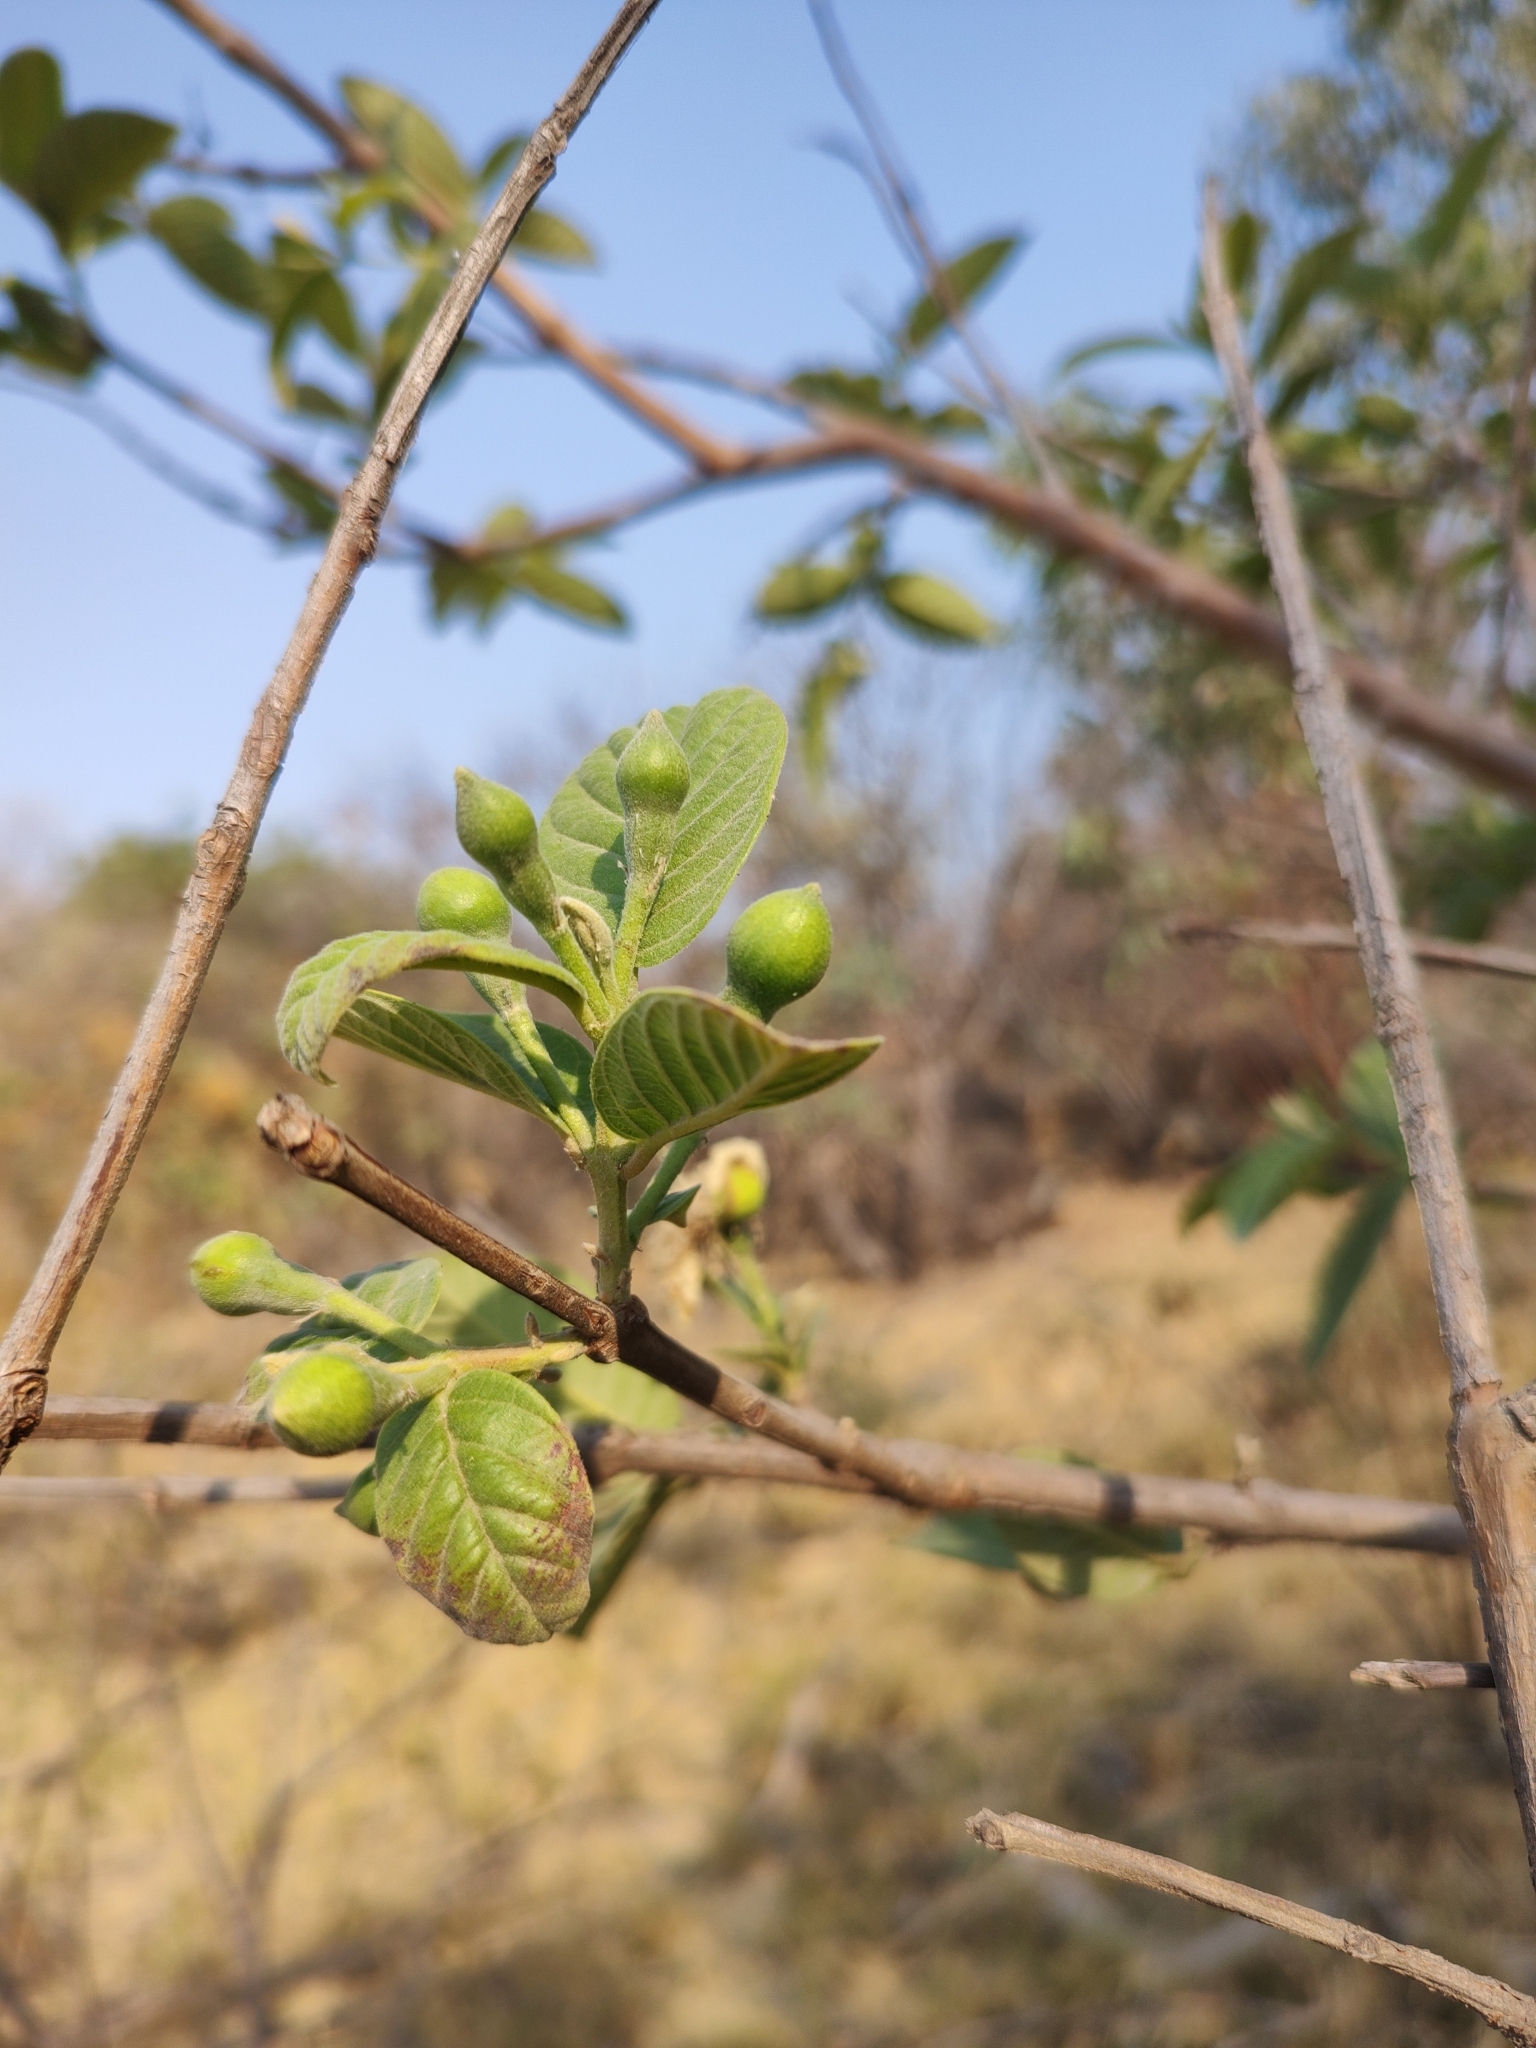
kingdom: Plantae
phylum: Tracheophyta
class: Magnoliopsida
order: Myrtales
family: Myrtaceae
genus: Psidium
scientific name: Psidium guajava
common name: Guava
